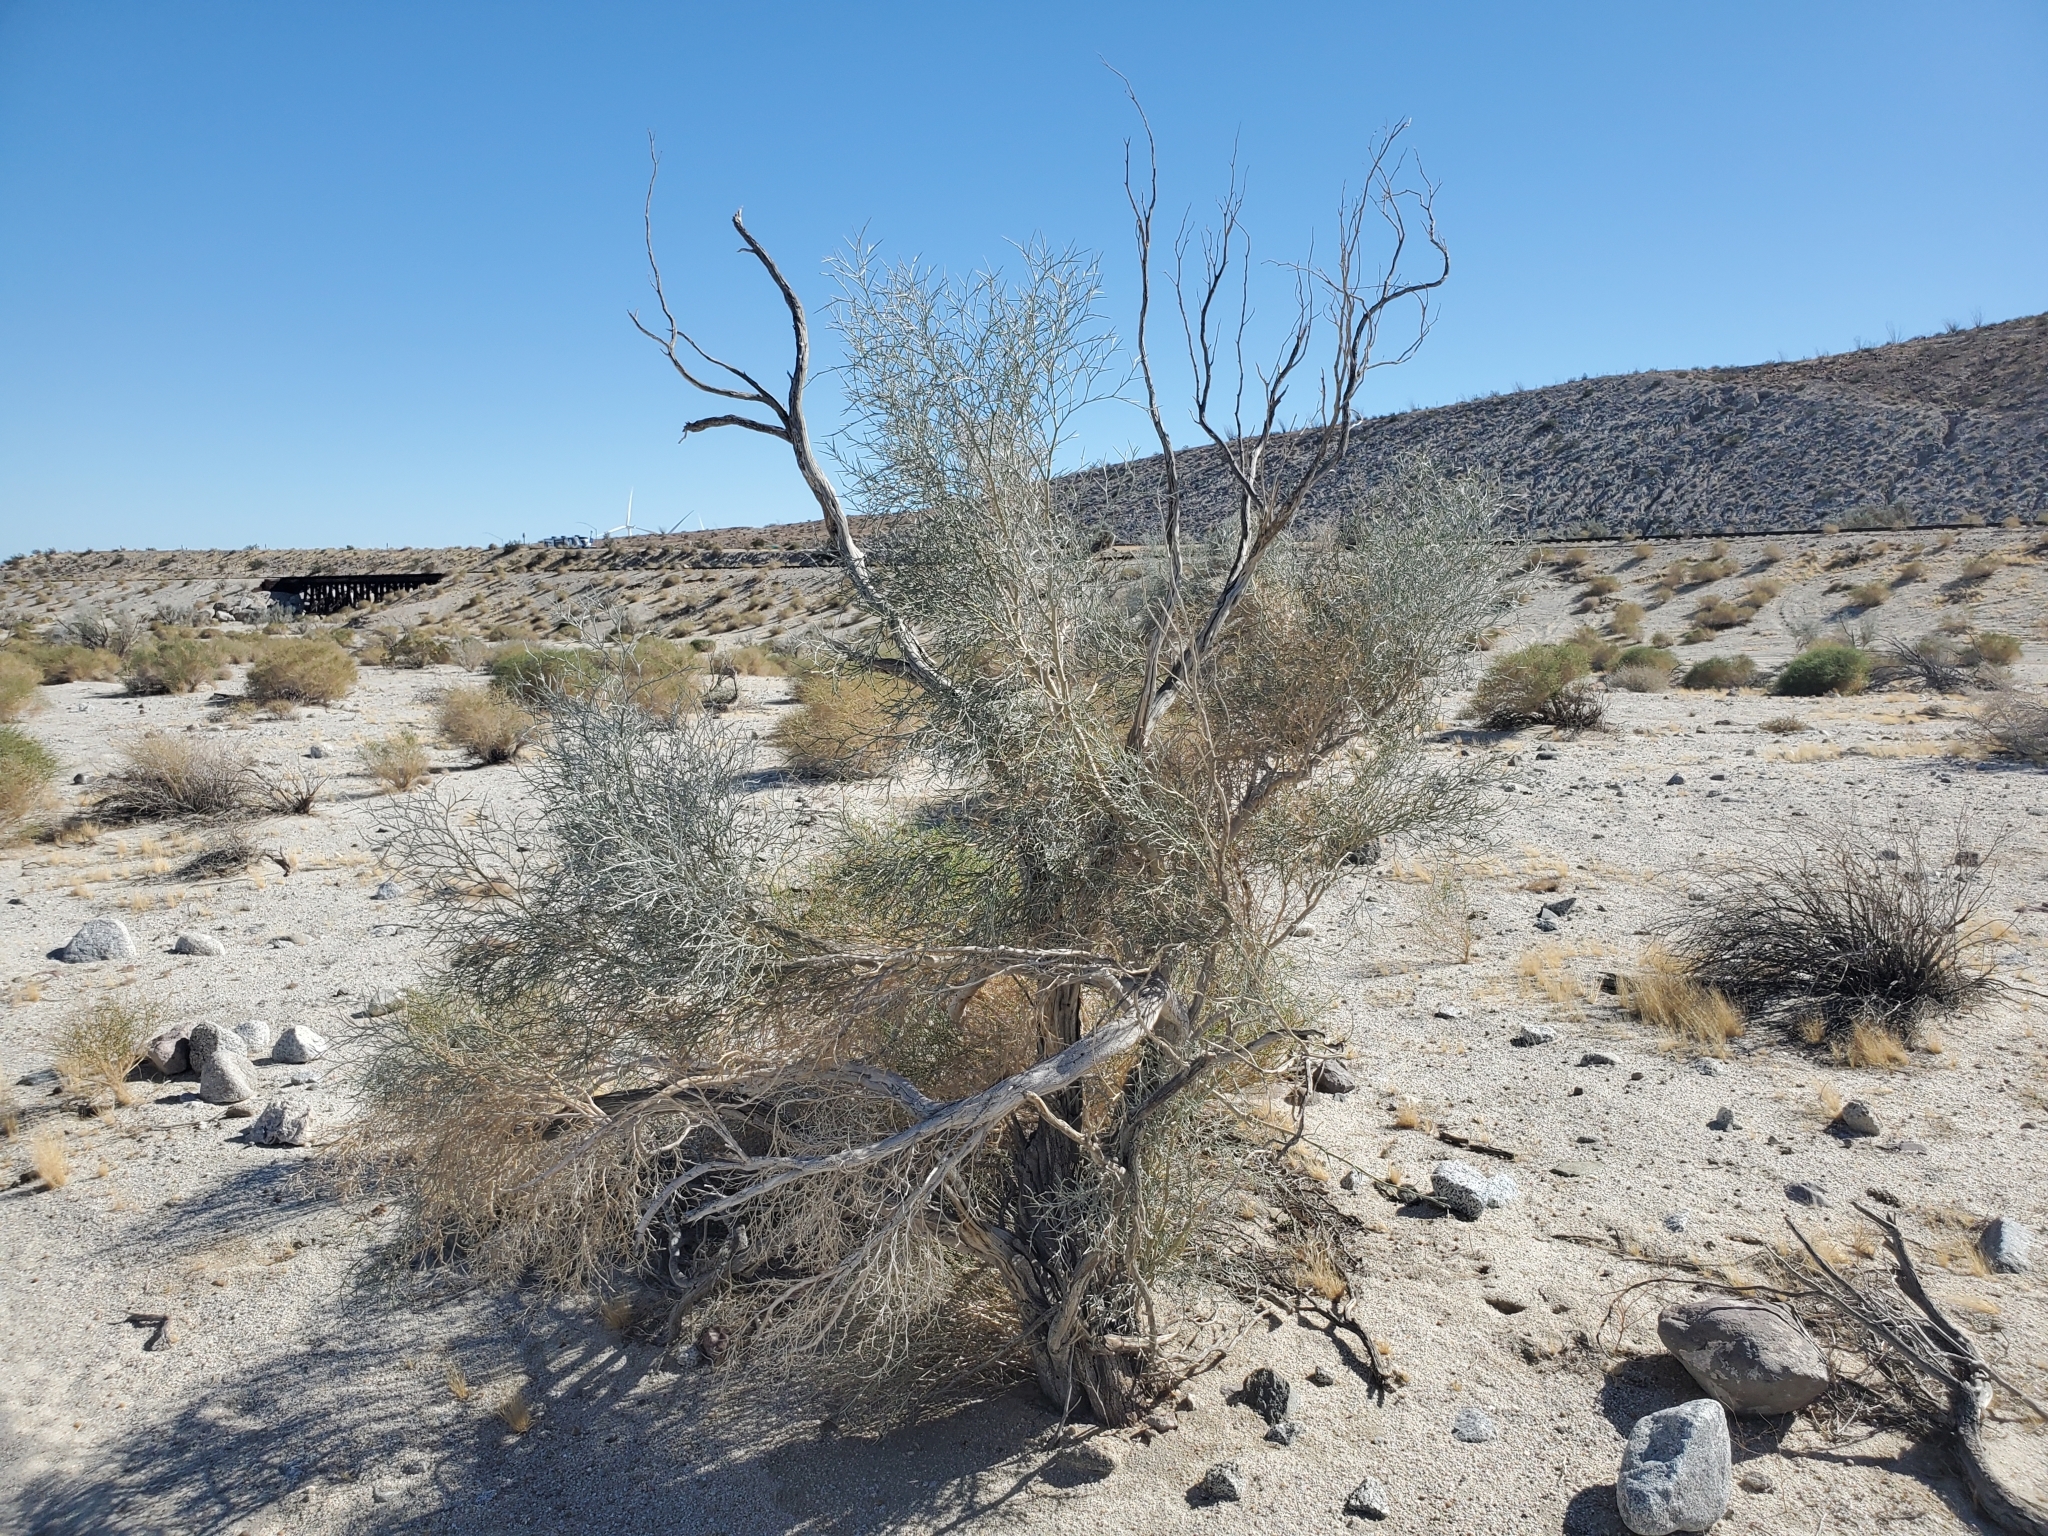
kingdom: Plantae
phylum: Tracheophyta
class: Magnoliopsida
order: Fabales
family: Fabaceae
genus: Psorothamnus
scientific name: Psorothamnus spinosus
